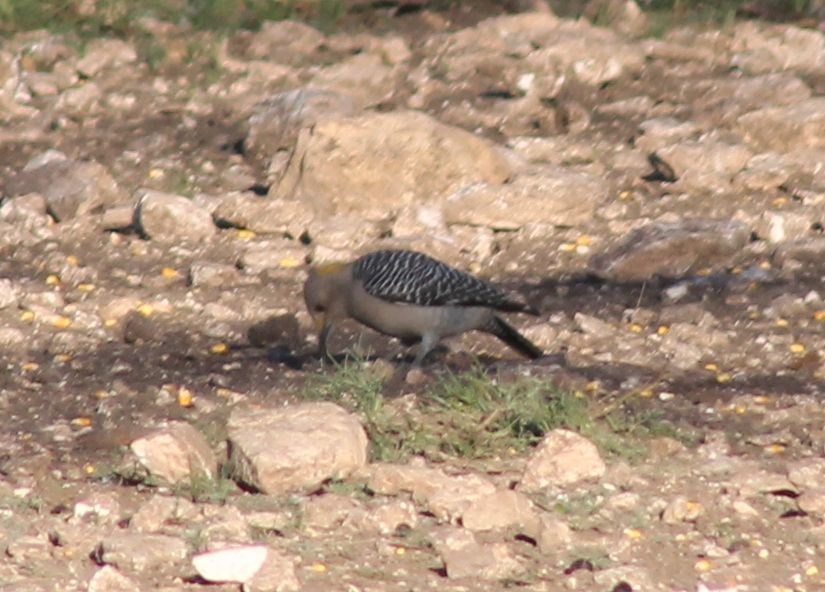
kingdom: Animalia
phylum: Chordata
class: Aves
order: Piciformes
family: Picidae
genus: Melanerpes
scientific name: Melanerpes aurifrons
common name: Golden-fronted woodpecker
